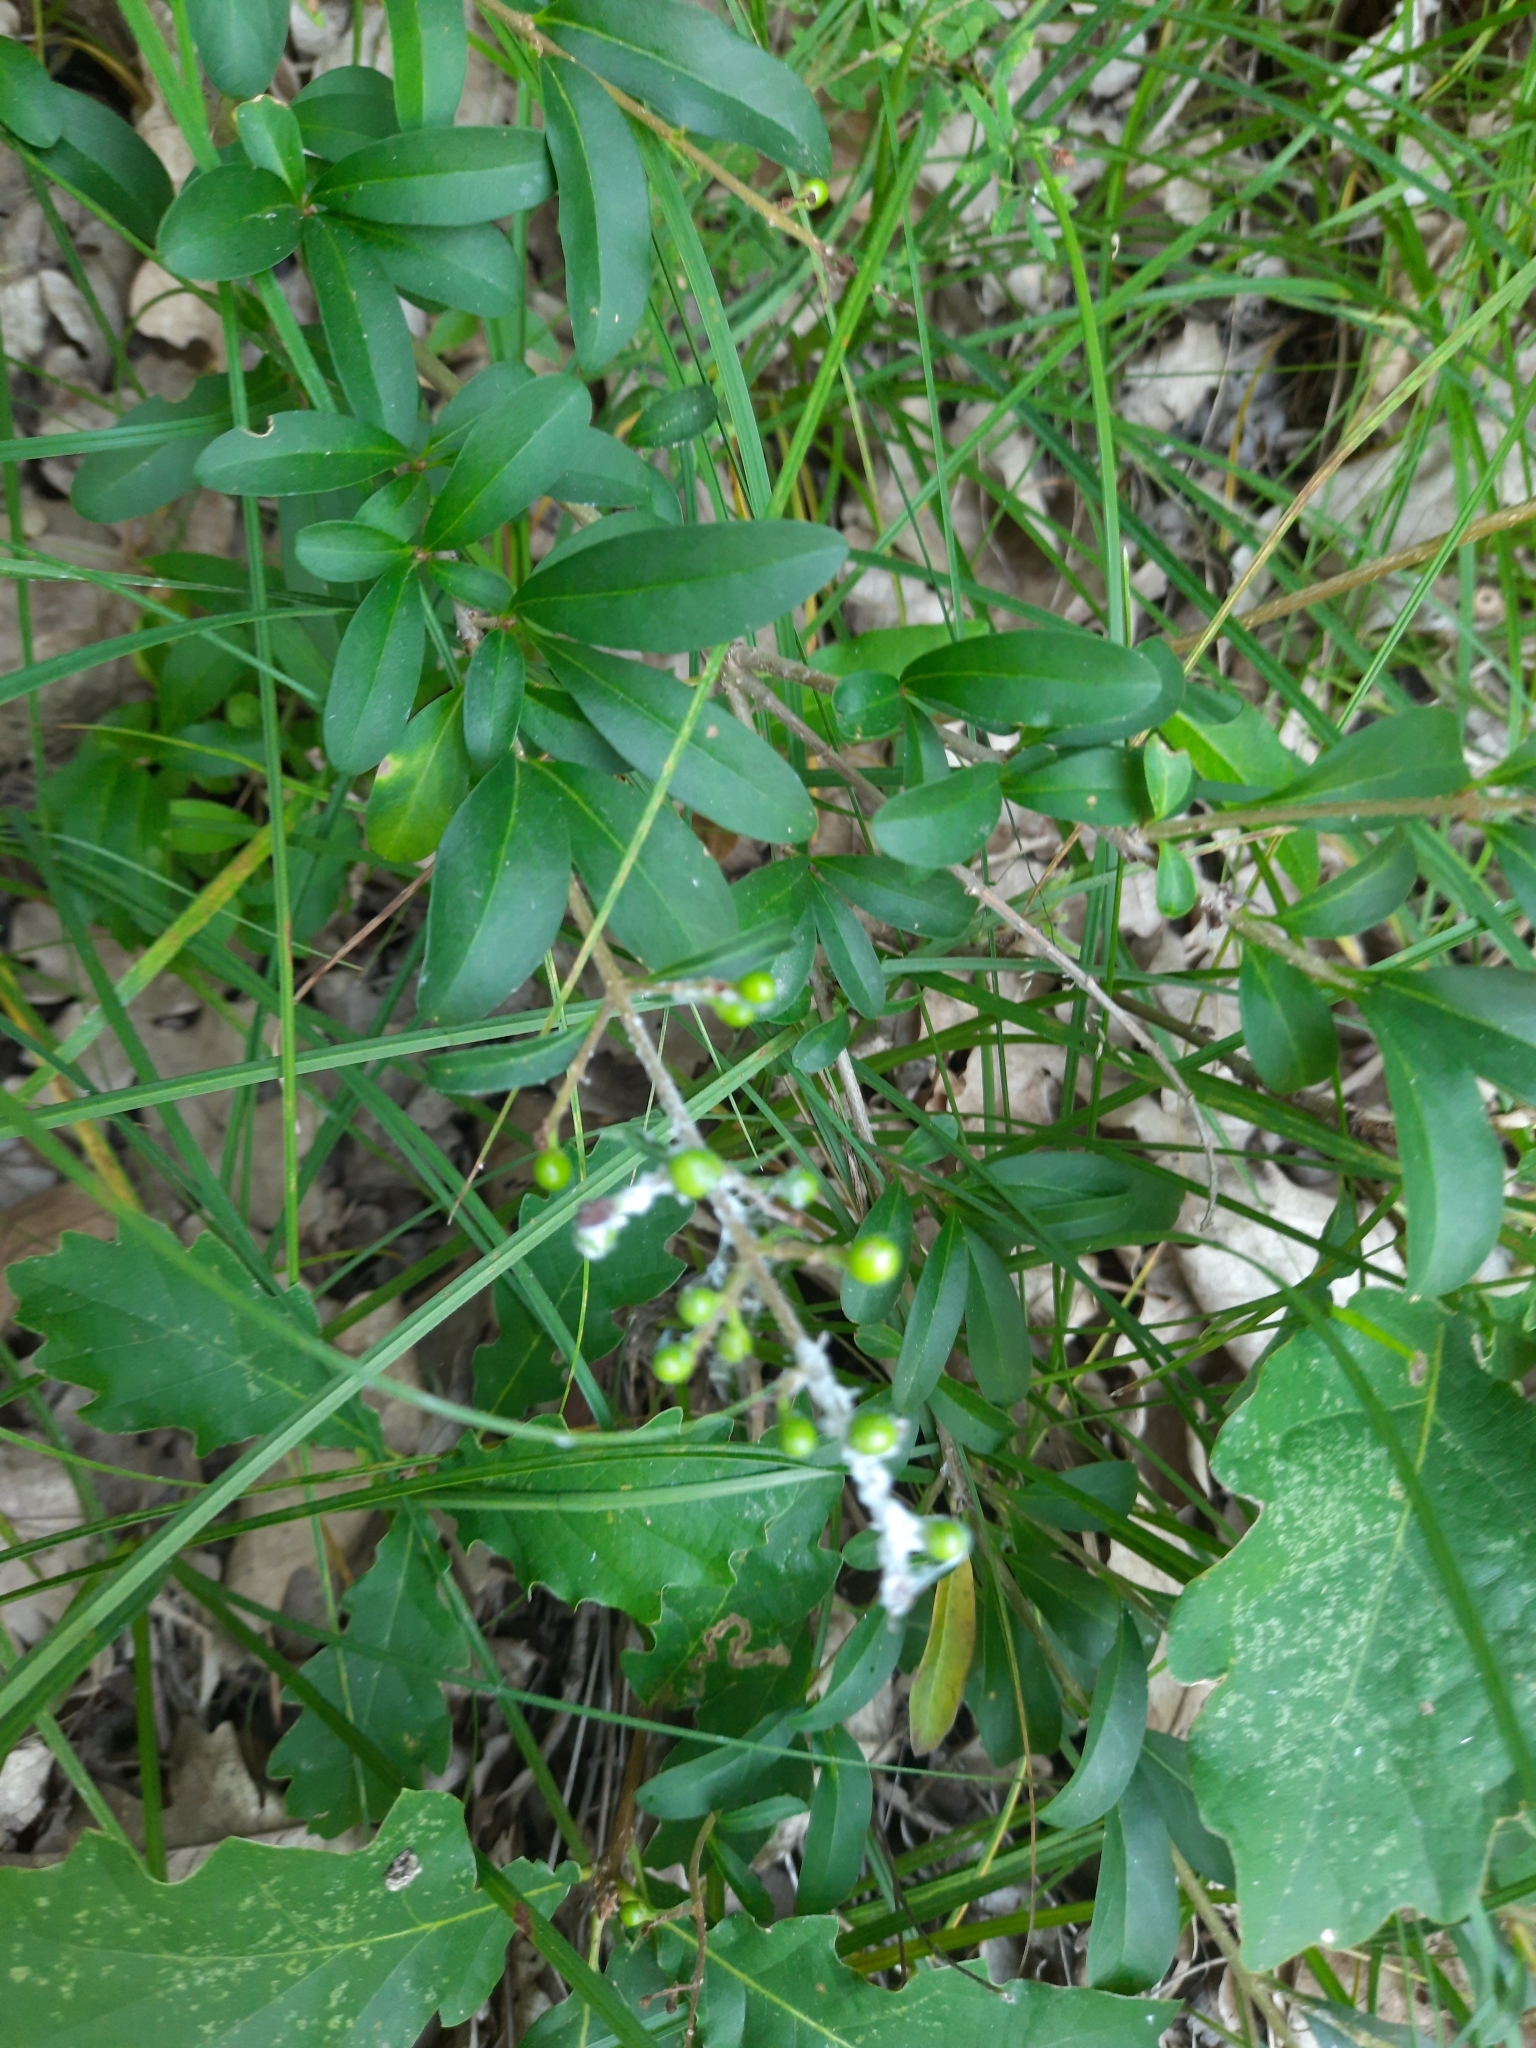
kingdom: Plantae
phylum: Tracheophyta
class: Magnoliopsida
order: Lamiales
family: Oleaceae
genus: Ligustrum
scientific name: Ligustrum vulgare
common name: Wild privet
